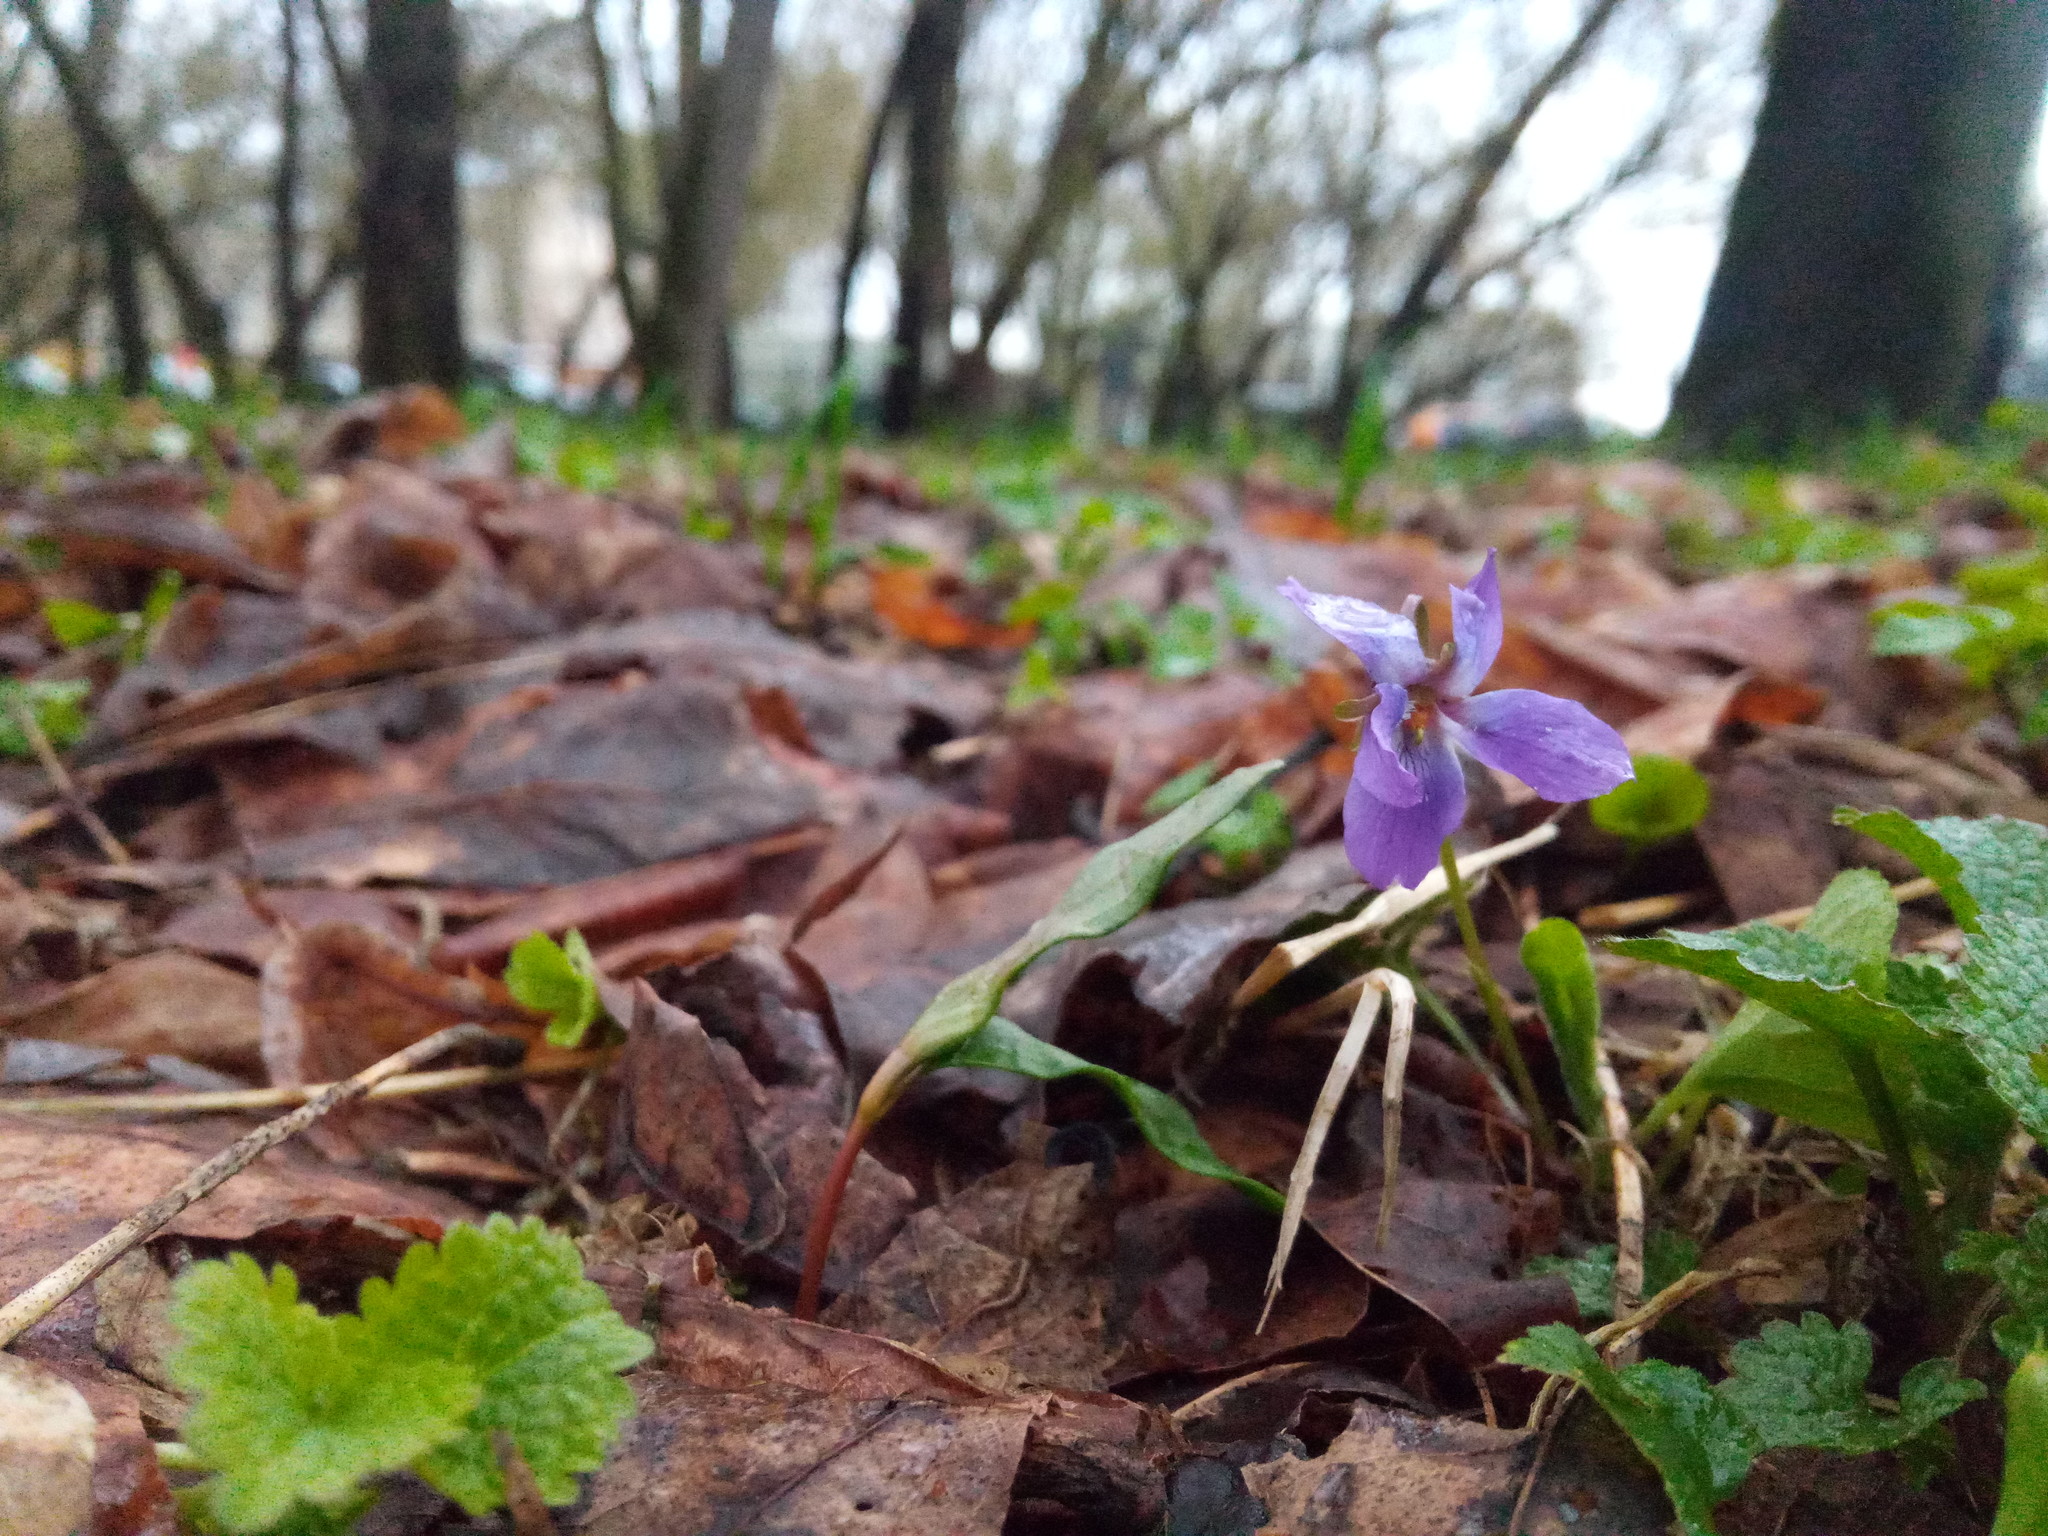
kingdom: Plantae
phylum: Tracheophyta
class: Magnoliopsida
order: Malpighiales
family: Violaceae
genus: Viola
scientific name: Viola odorata
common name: Sweet violet
